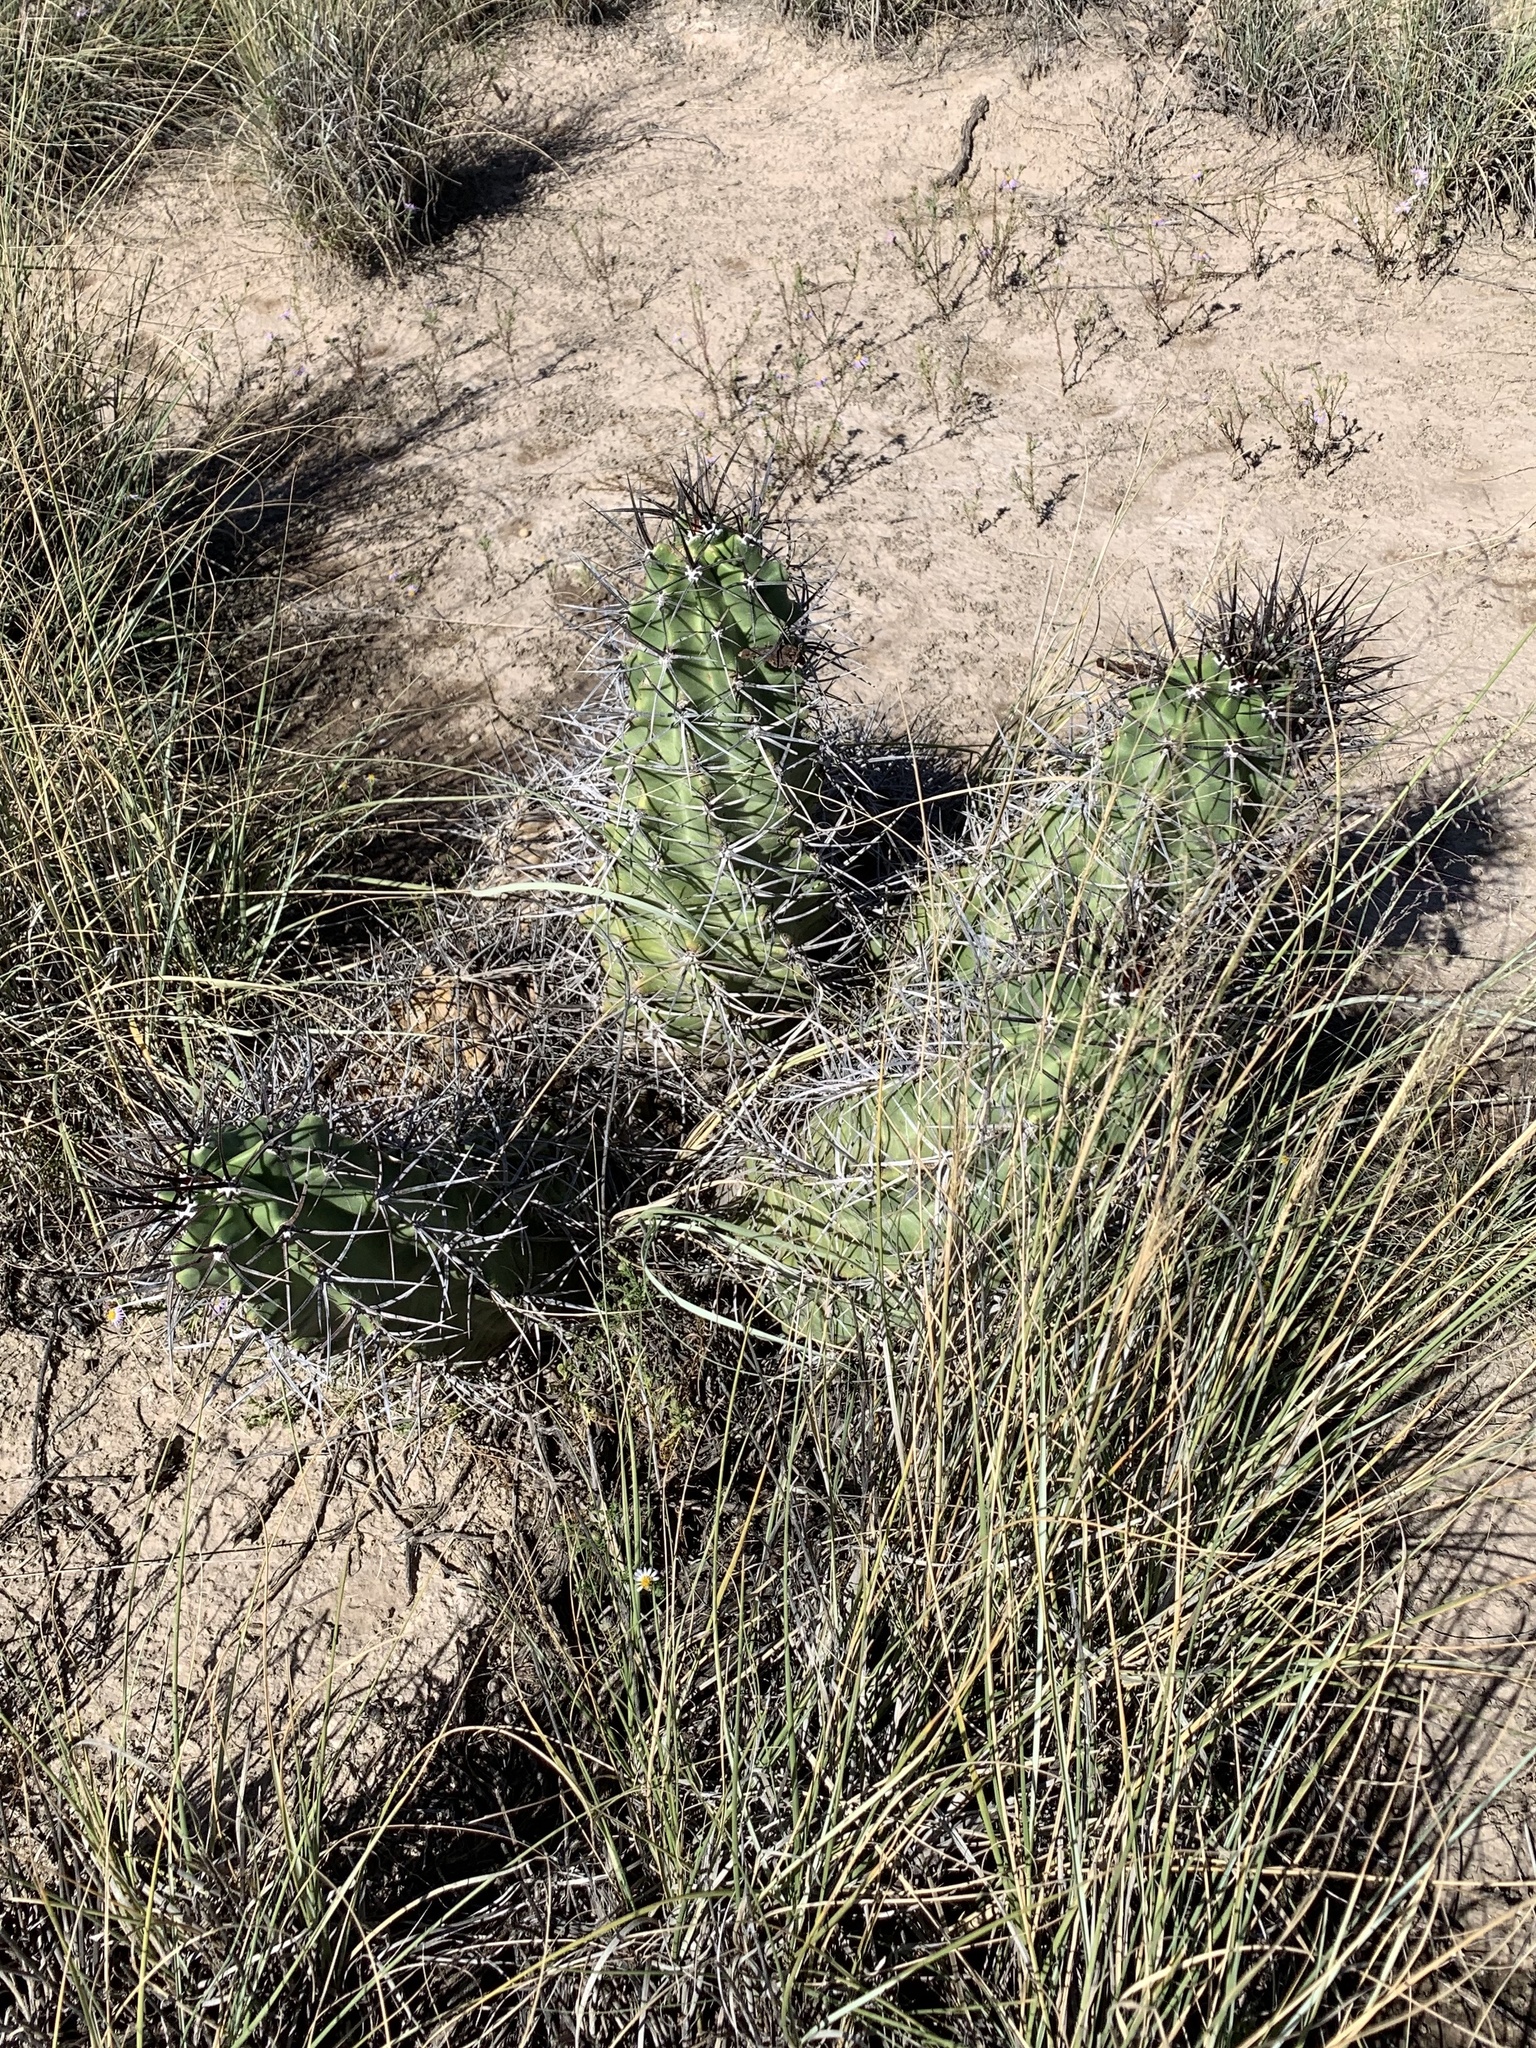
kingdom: Plantae
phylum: Tracheophyta
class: Magnoliopsida
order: Caryophyllales
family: Cactaceae
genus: Echinocereus
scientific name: Echinocereus triglochidiatus
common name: Claretcup hedgehog
